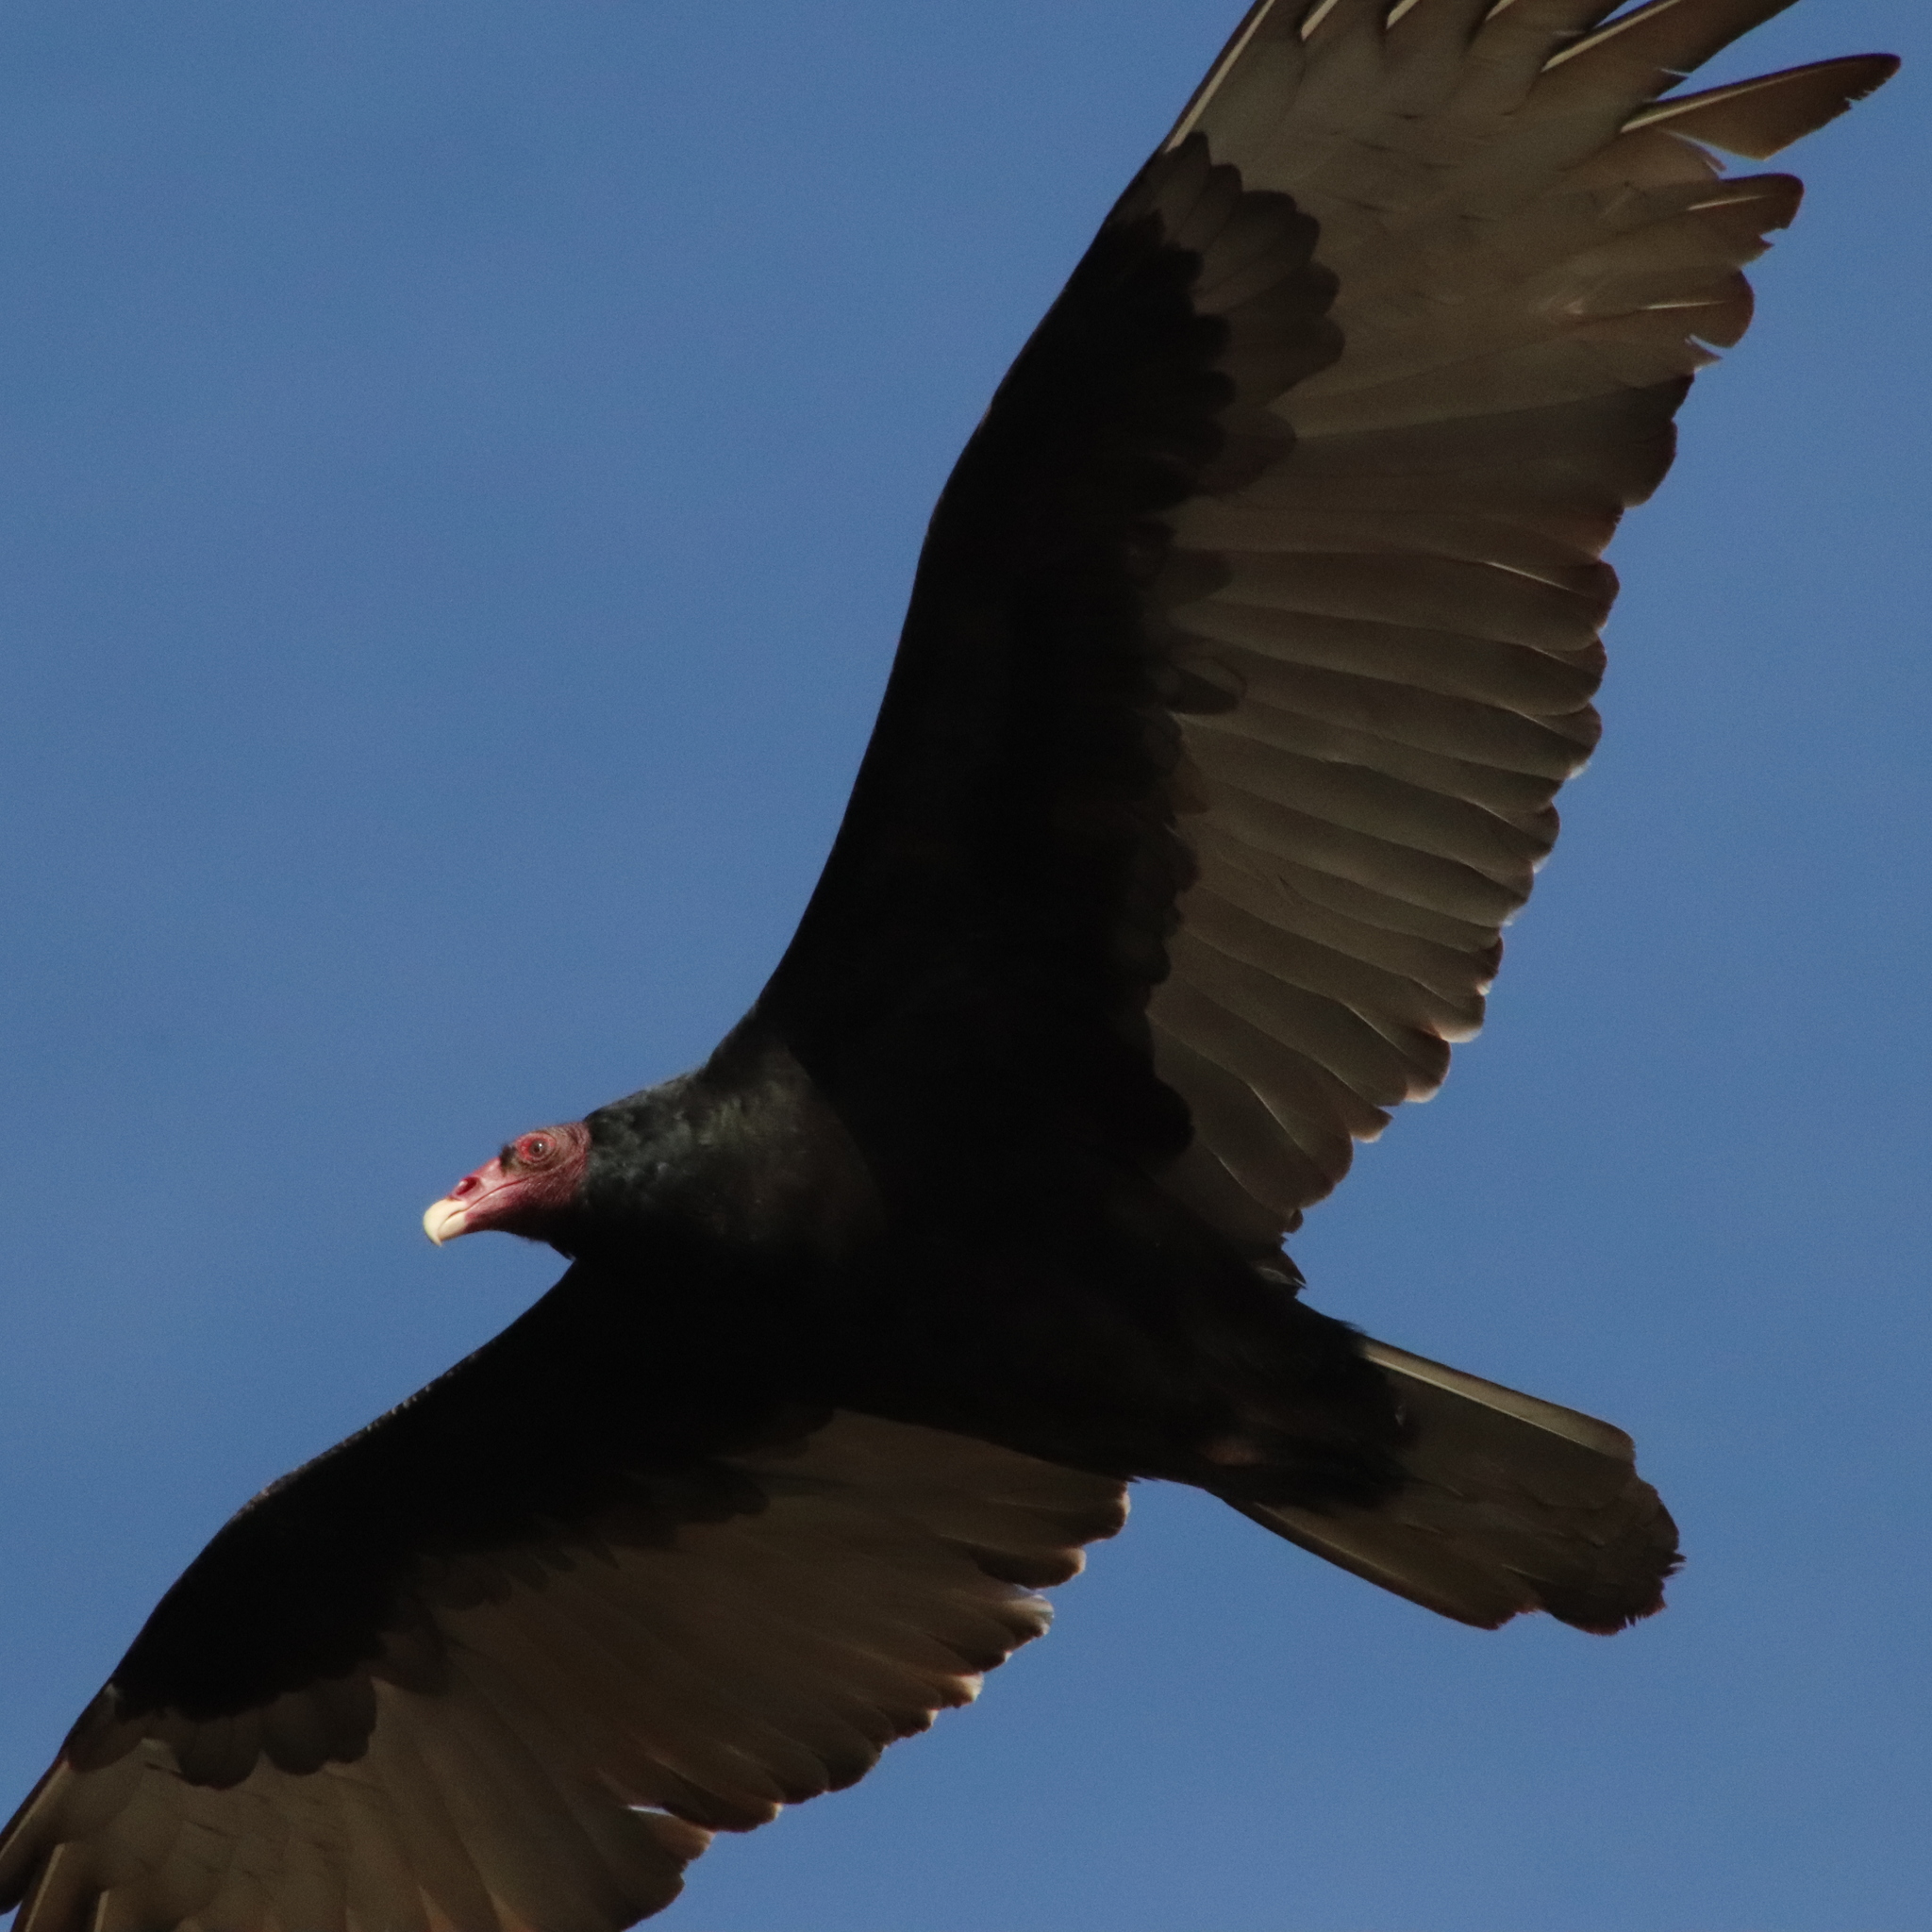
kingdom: Animalia
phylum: Chordata
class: Aves
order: Accipitriformes
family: Cathartidae
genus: Cathartes
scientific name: Cathartes aura
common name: Turkey vulture
